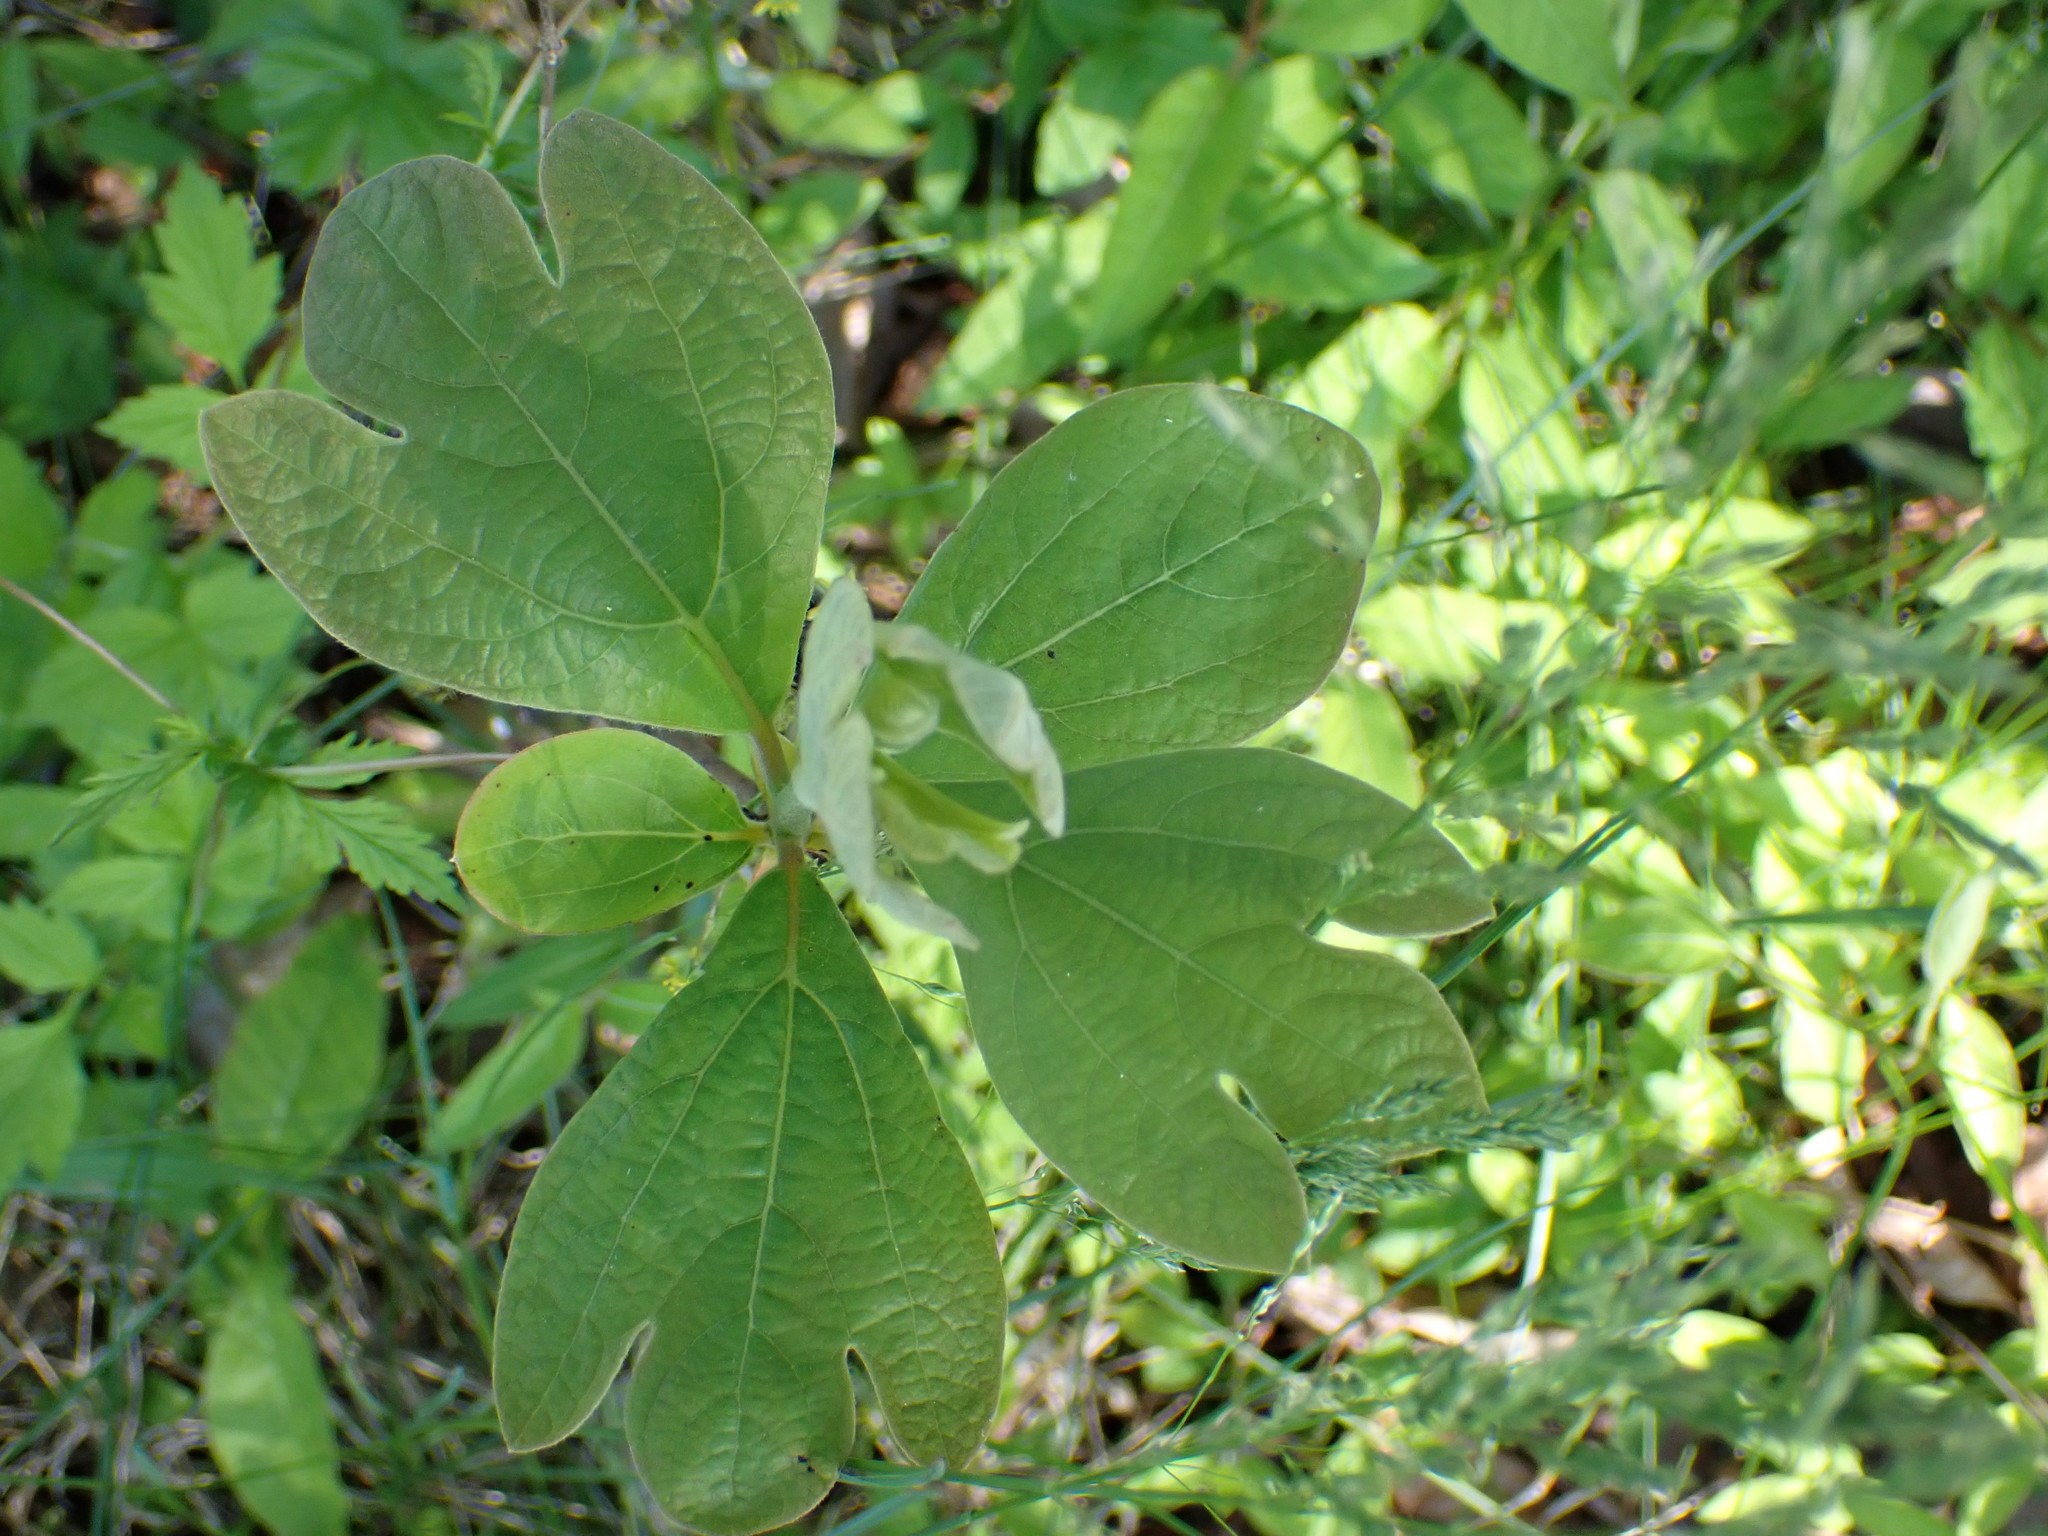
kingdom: Plantae
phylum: Tracheophyta
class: Magnoliopsida
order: Laurales
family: Lauraceae
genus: Sassafras
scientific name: Sassafras albidum
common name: Sassafras
